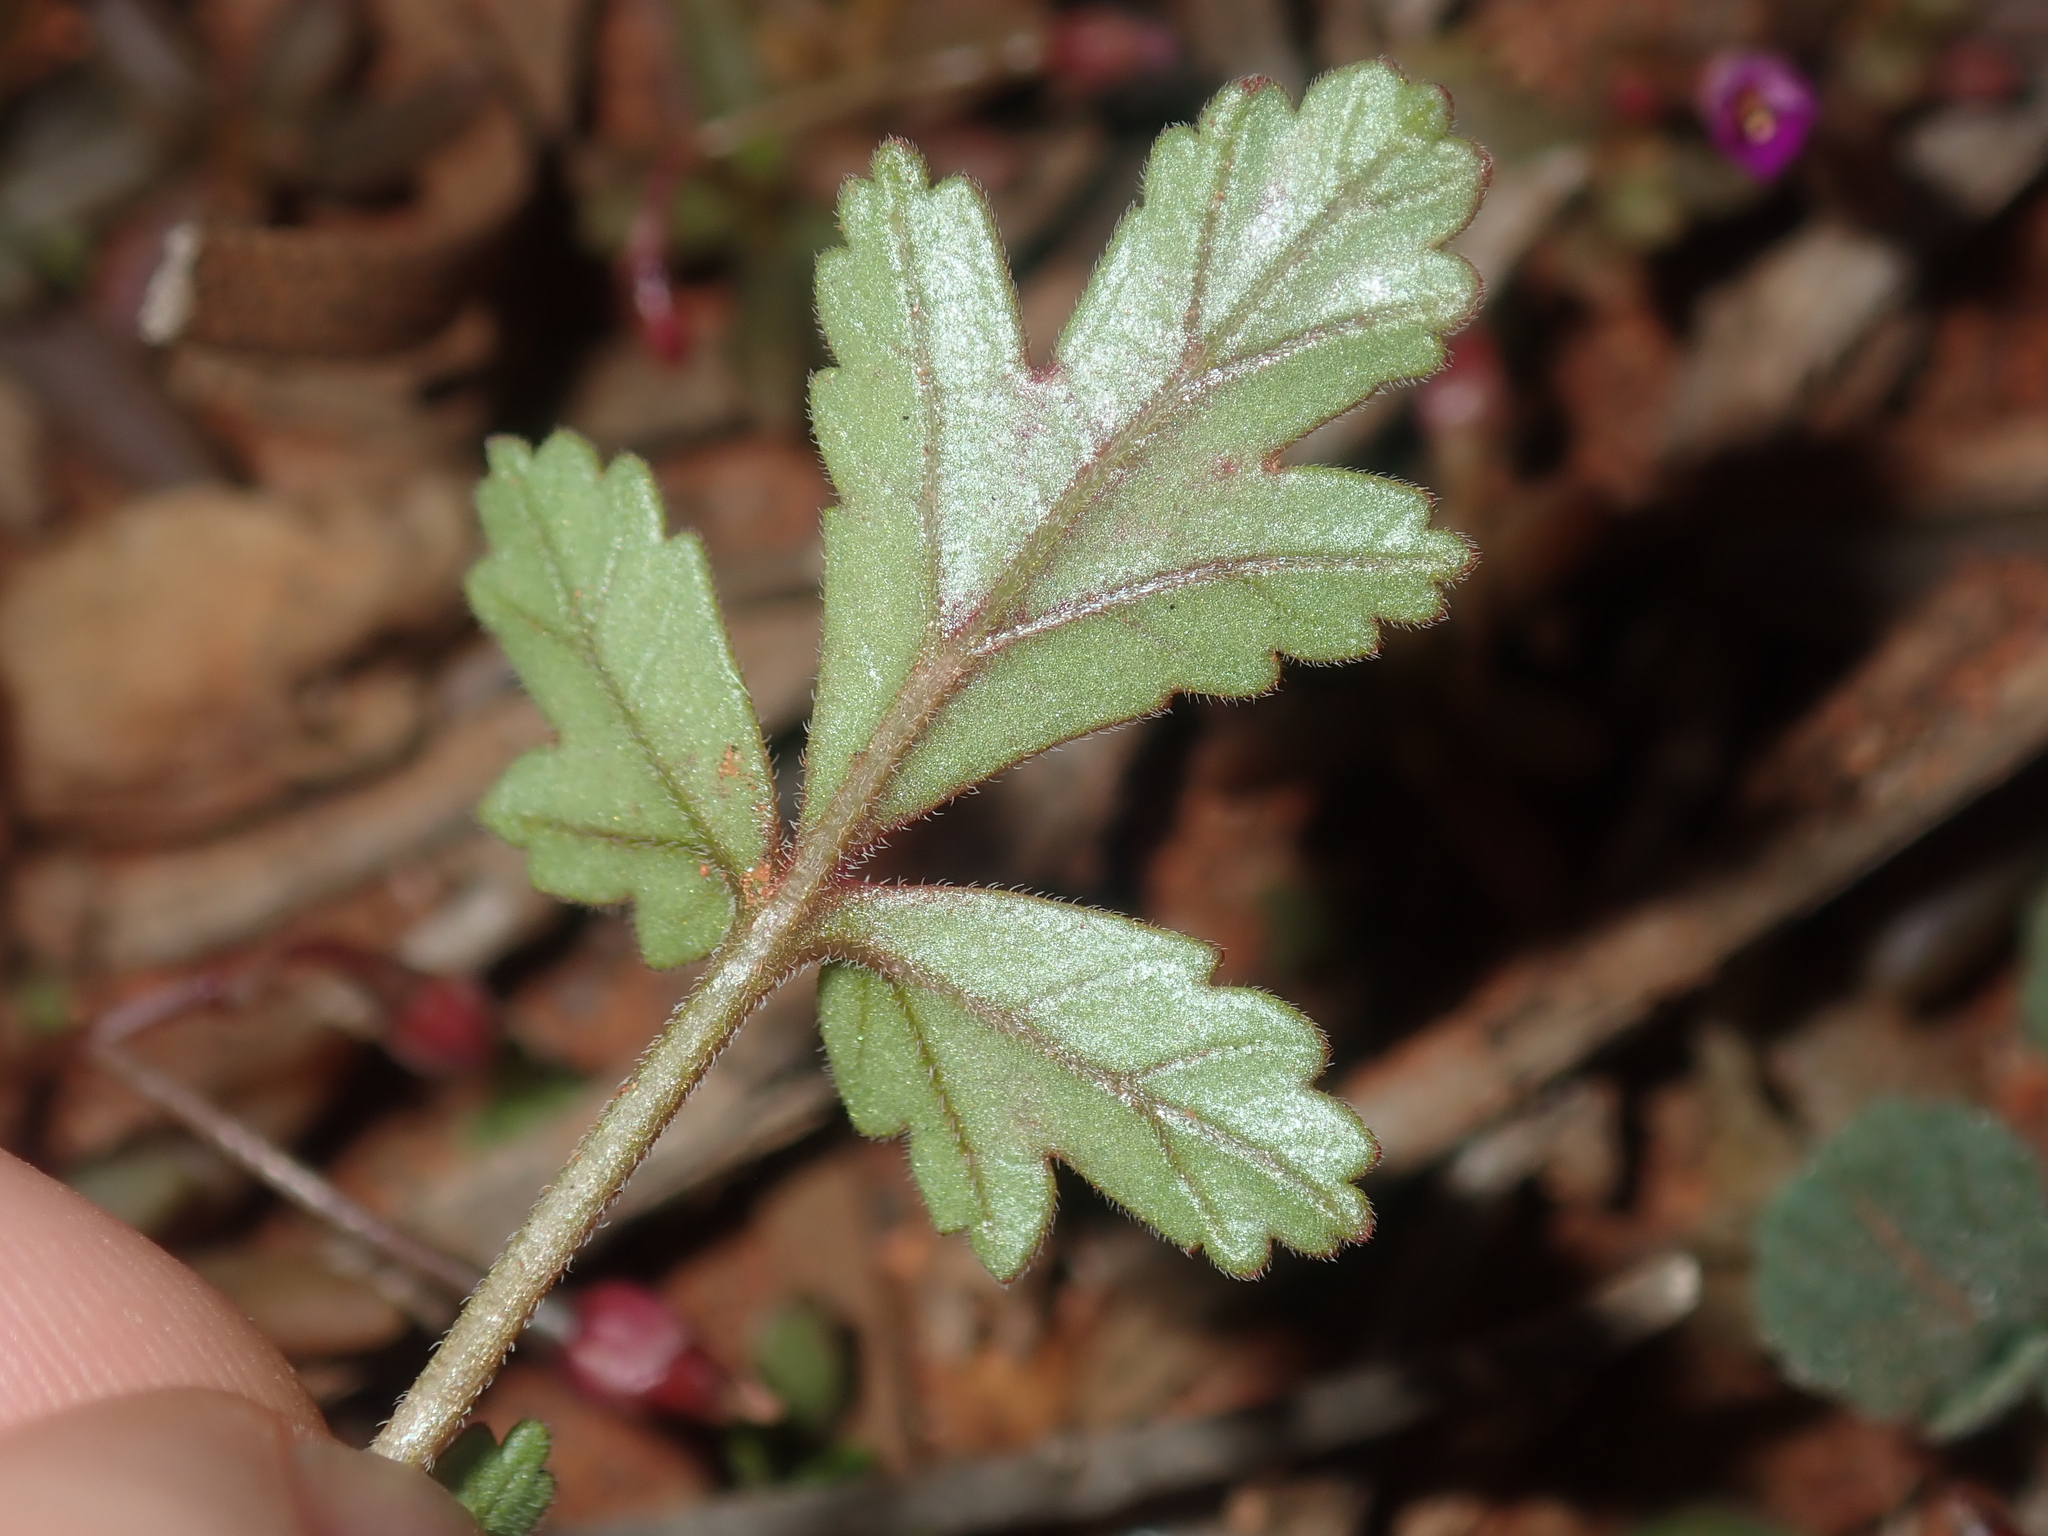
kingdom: Plantae
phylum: Tracheophyta
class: Magnoliopsida
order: Geraniales
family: Geraniaceae
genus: Erodium
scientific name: Erodium cygnorum
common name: Western stork's-bill
